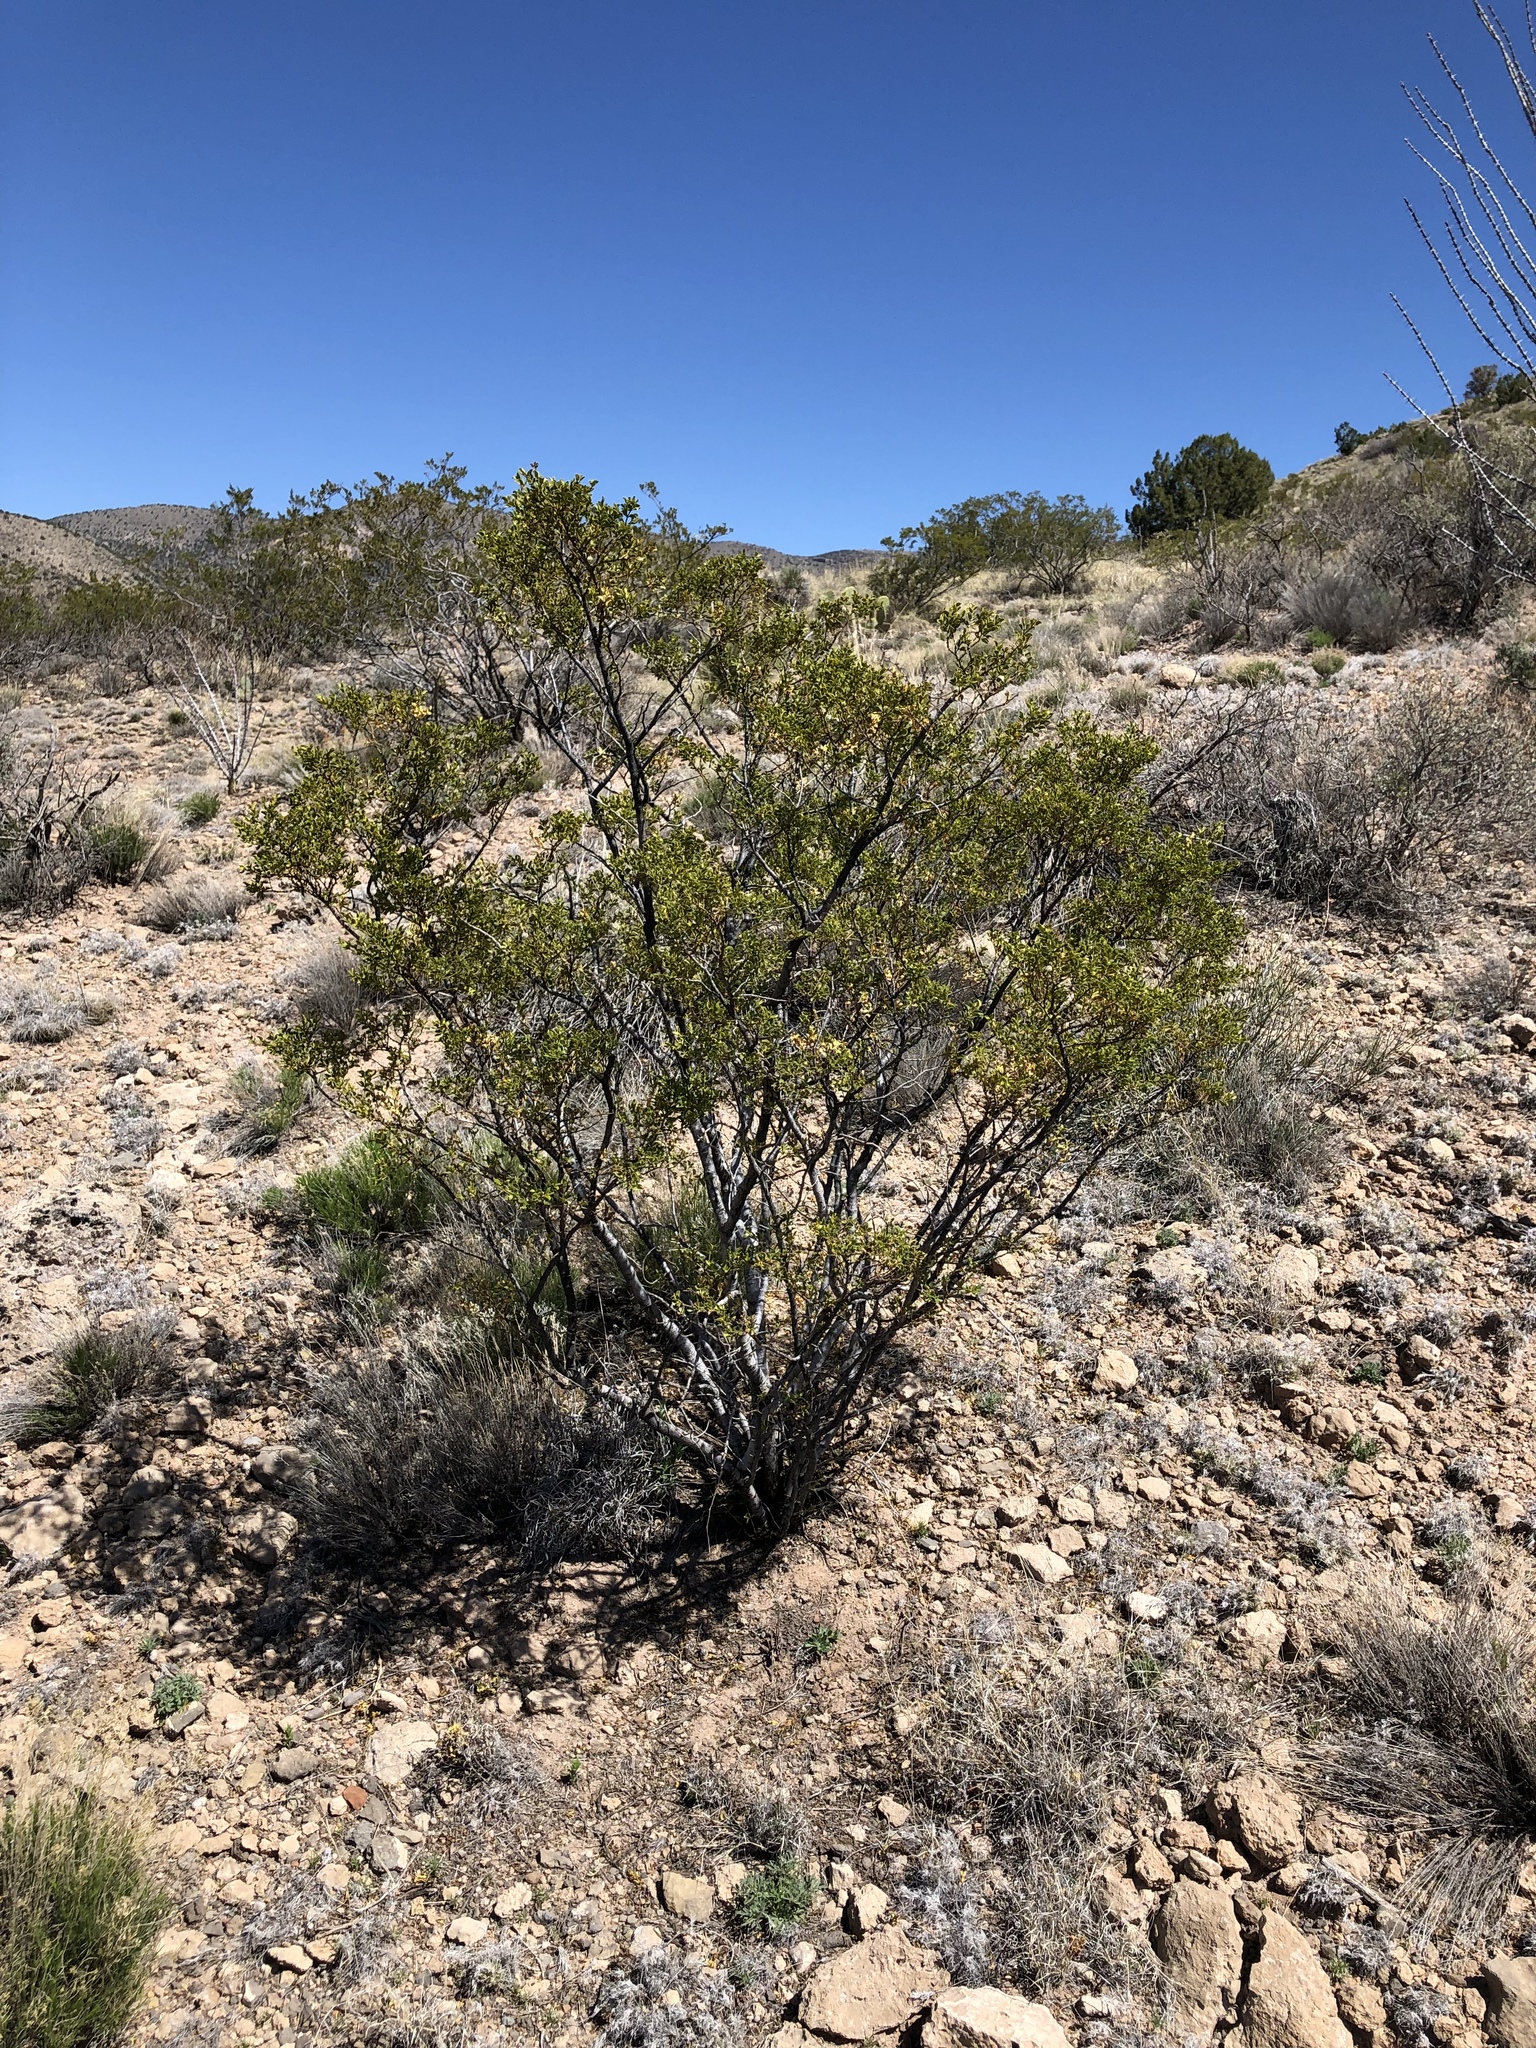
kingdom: Plantae
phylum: Tracheophyta
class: Magnoliopsida
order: Zygophyllales
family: Zygophyllaceae
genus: Larrea
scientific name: Larrea tridentata
